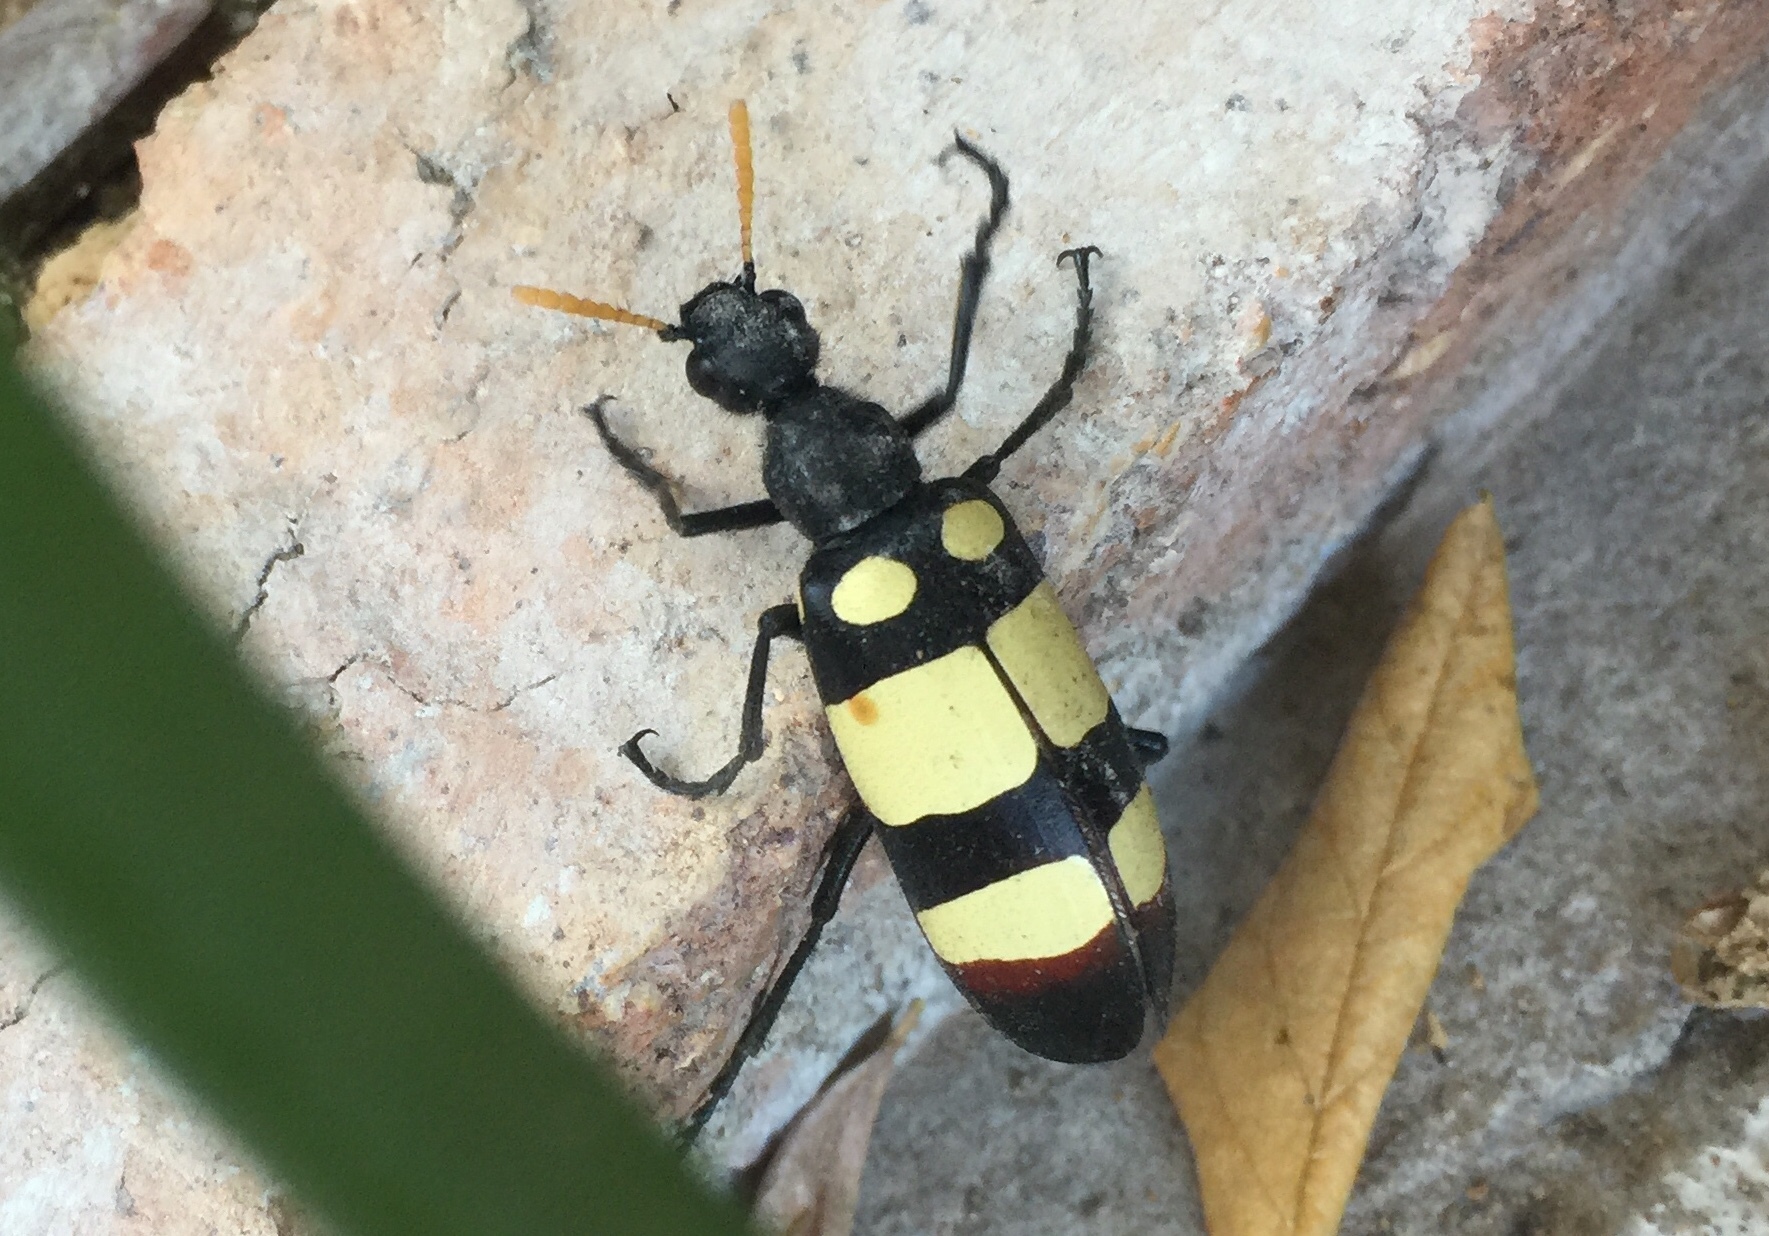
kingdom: Animalia
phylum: Arthropoda
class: Insecta
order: Coleoptera
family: Meloidae
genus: Hycleus
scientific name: Hycleus
